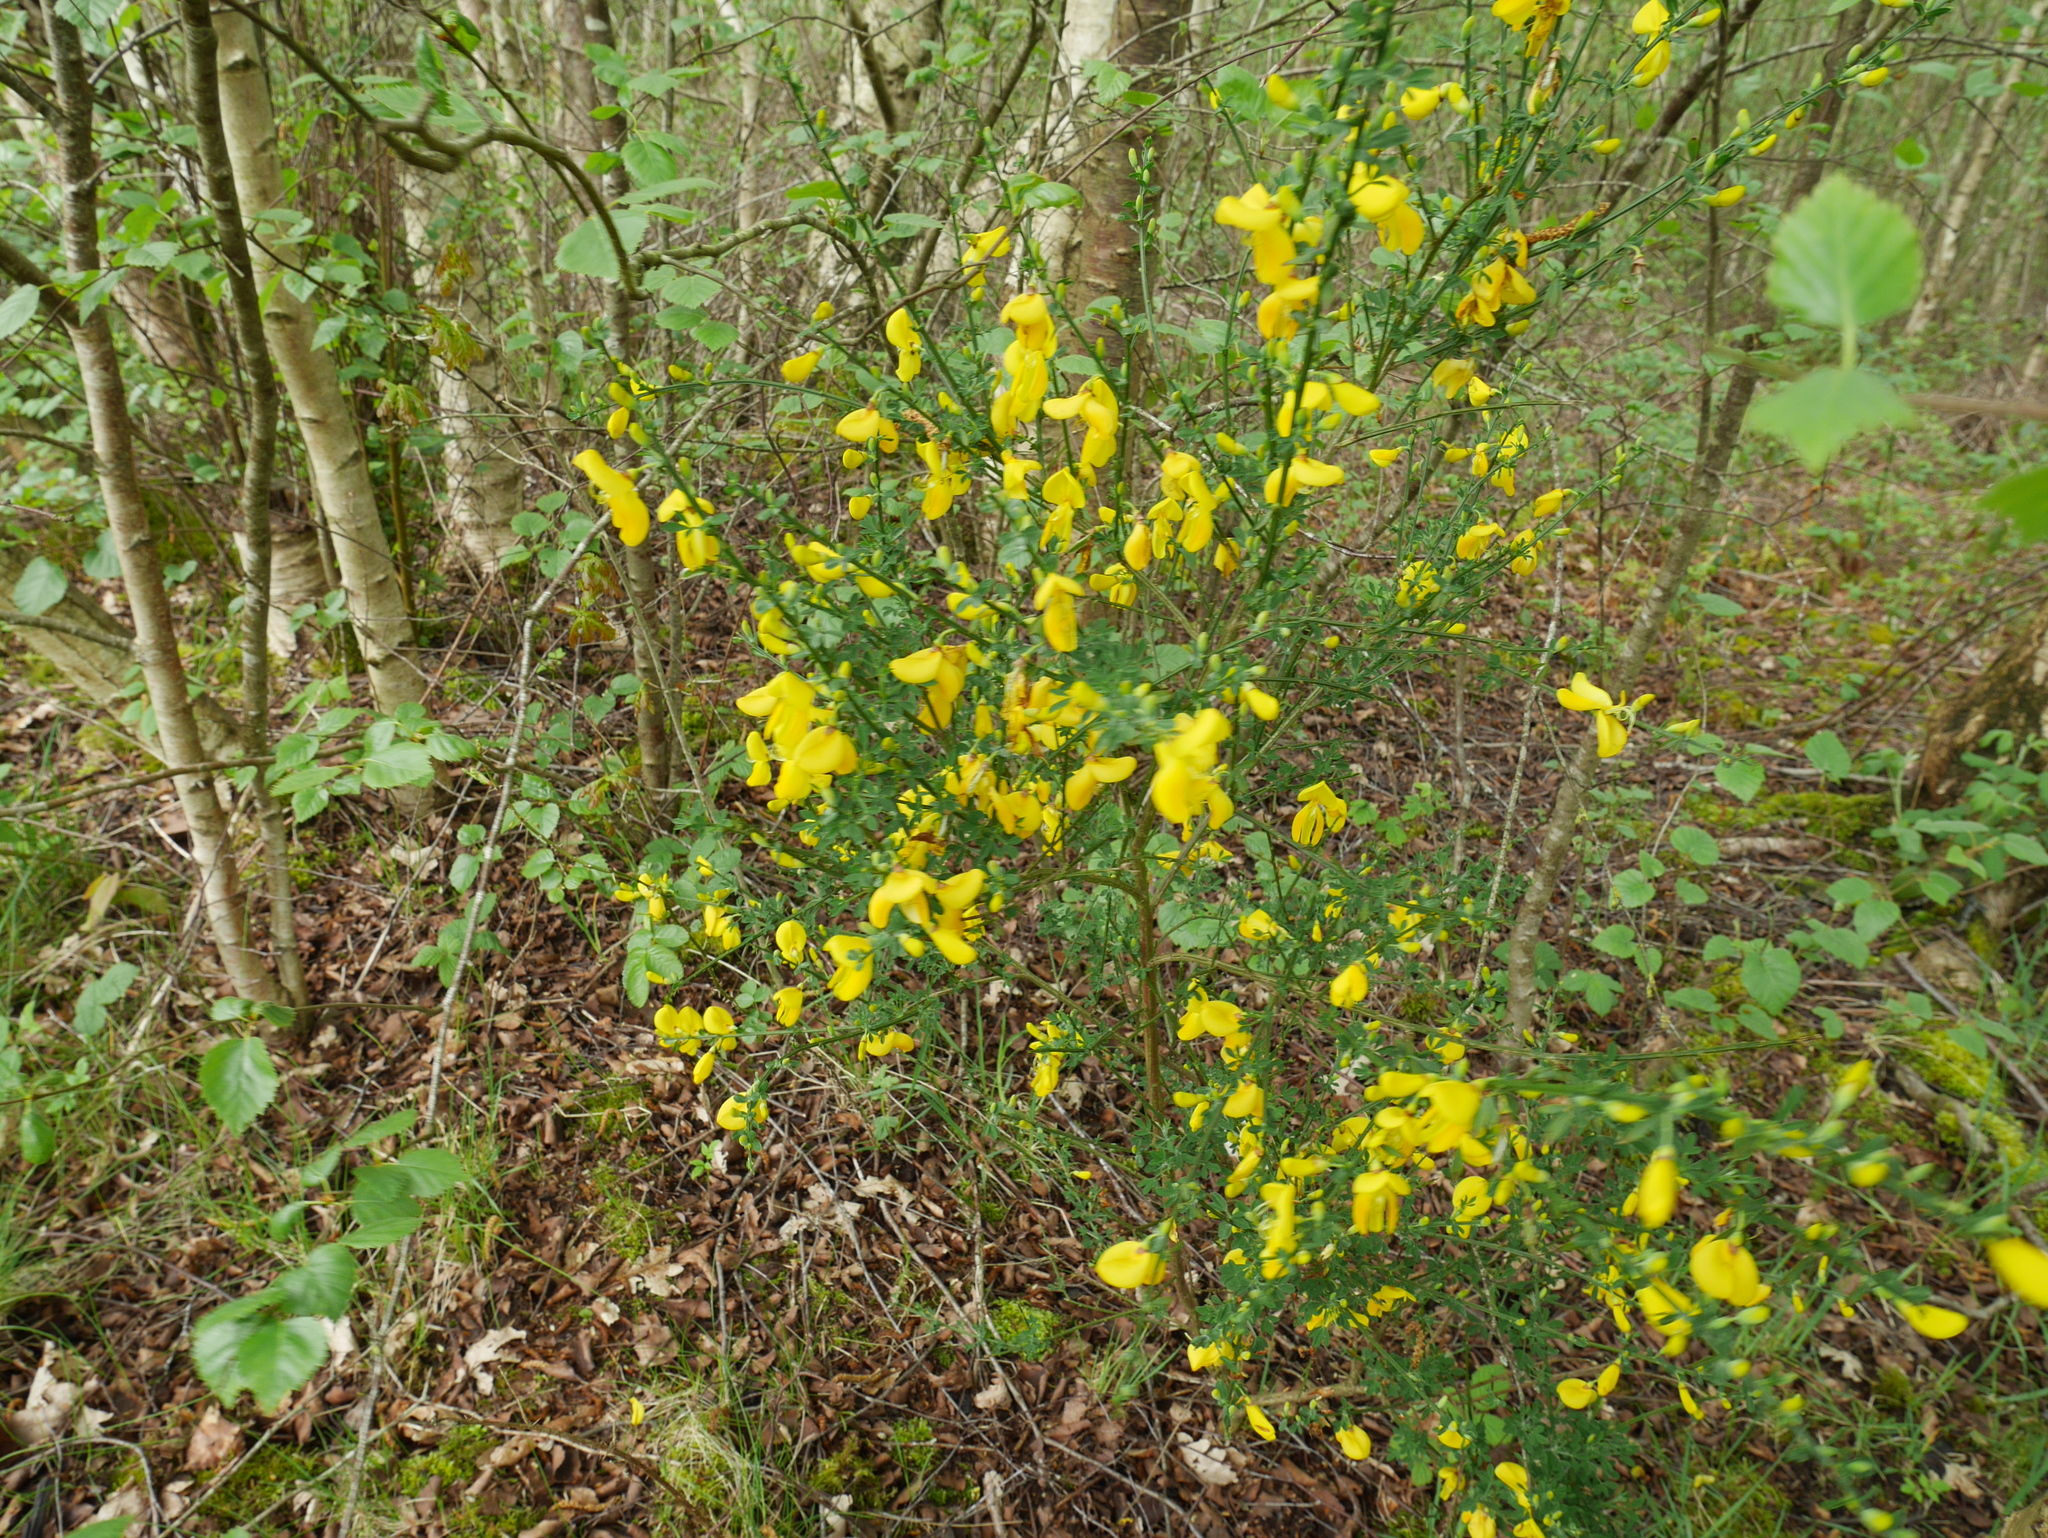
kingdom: Plantae
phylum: Tracheophyta
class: Magnoliopsida
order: Fabales
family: Fabaceae
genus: Cytisus
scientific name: Cytisus scoparius
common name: Scotch broom
